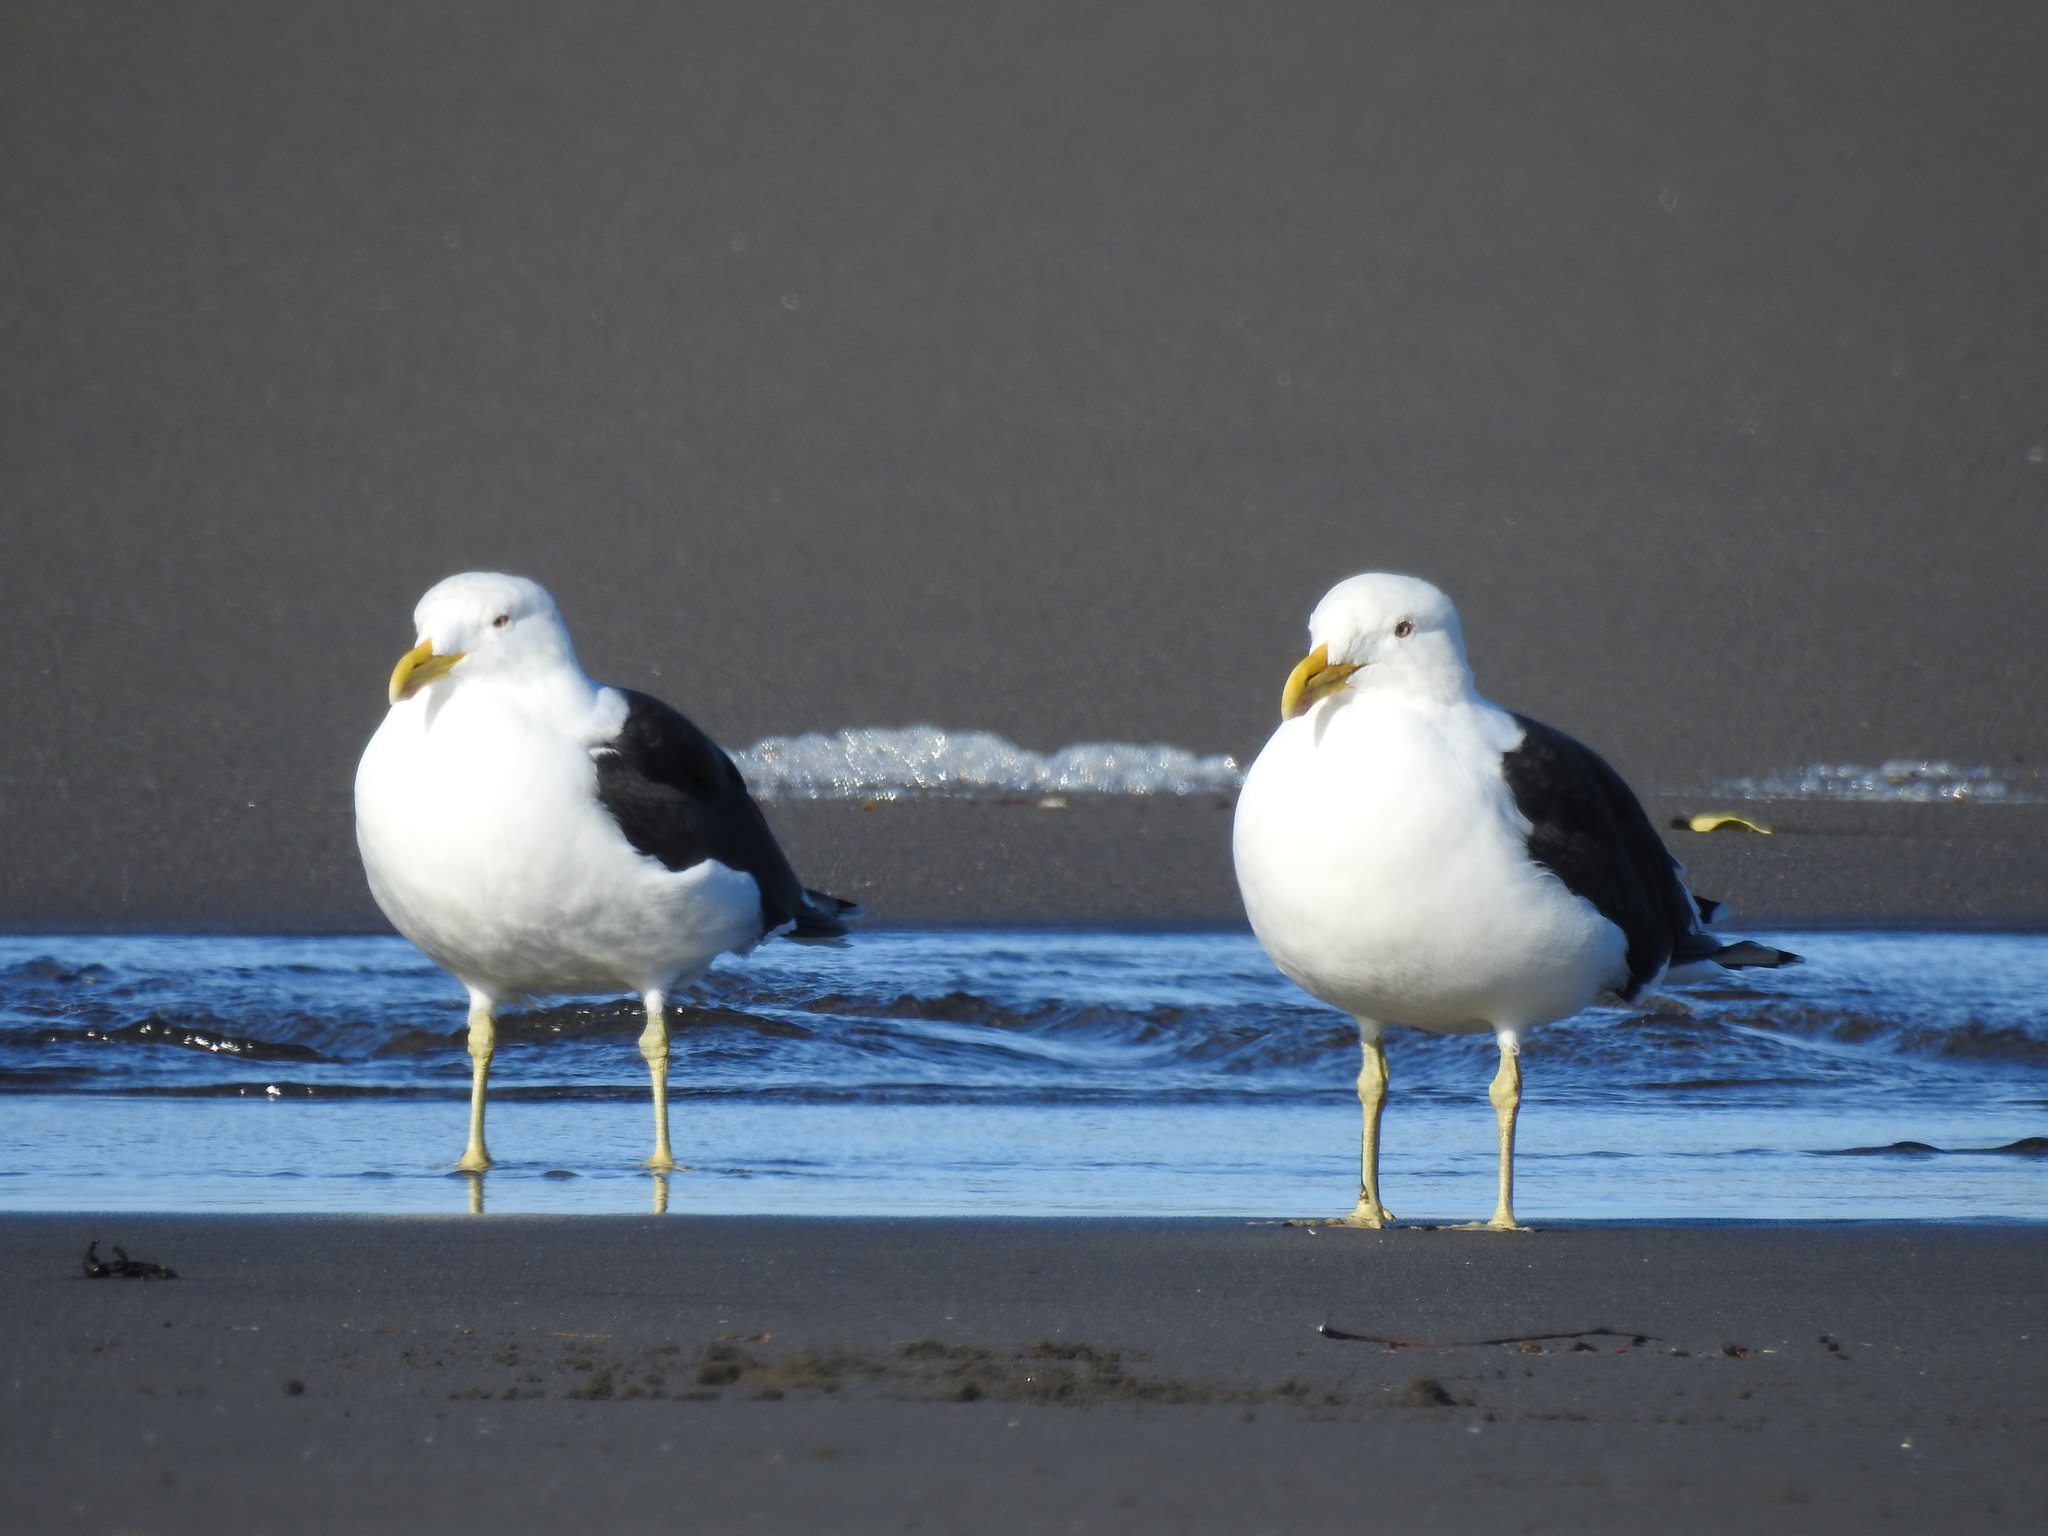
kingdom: Animalia
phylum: Chordata
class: Aves
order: Charadriiformes
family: Laridae
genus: Larus
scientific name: Larus dominicanus
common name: Kelp gull
